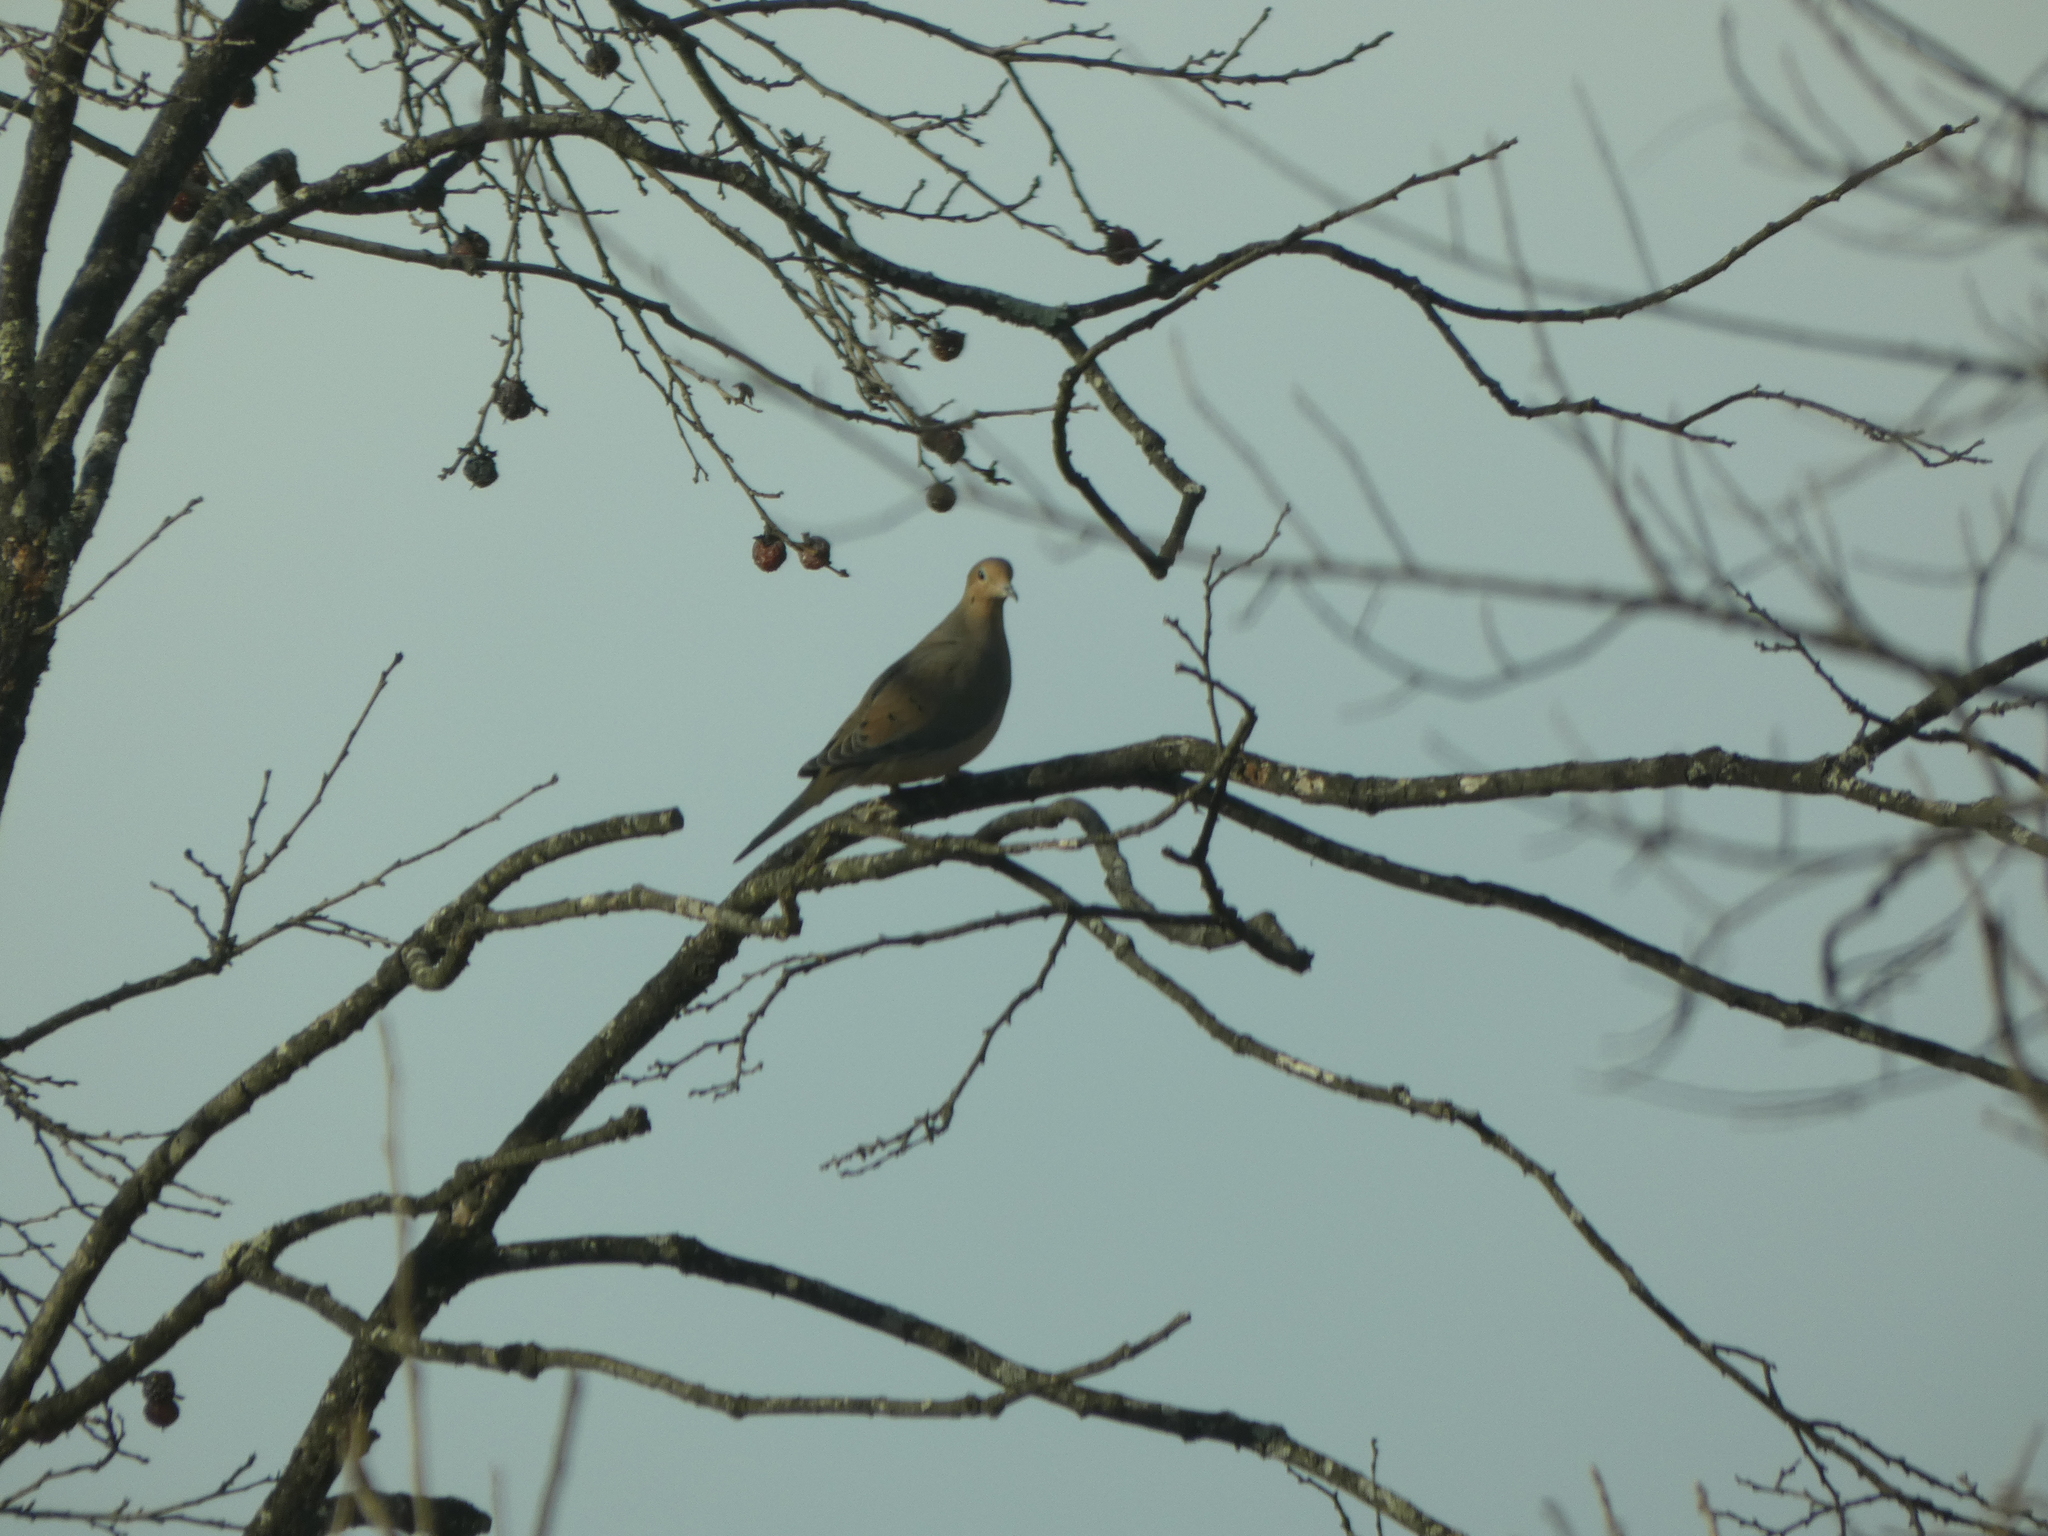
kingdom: Animalia
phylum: Chordata
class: Aves
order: Columbiformes
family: Columbidae
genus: Zenaida
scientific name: Zenaida macroura
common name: Mourning dove
